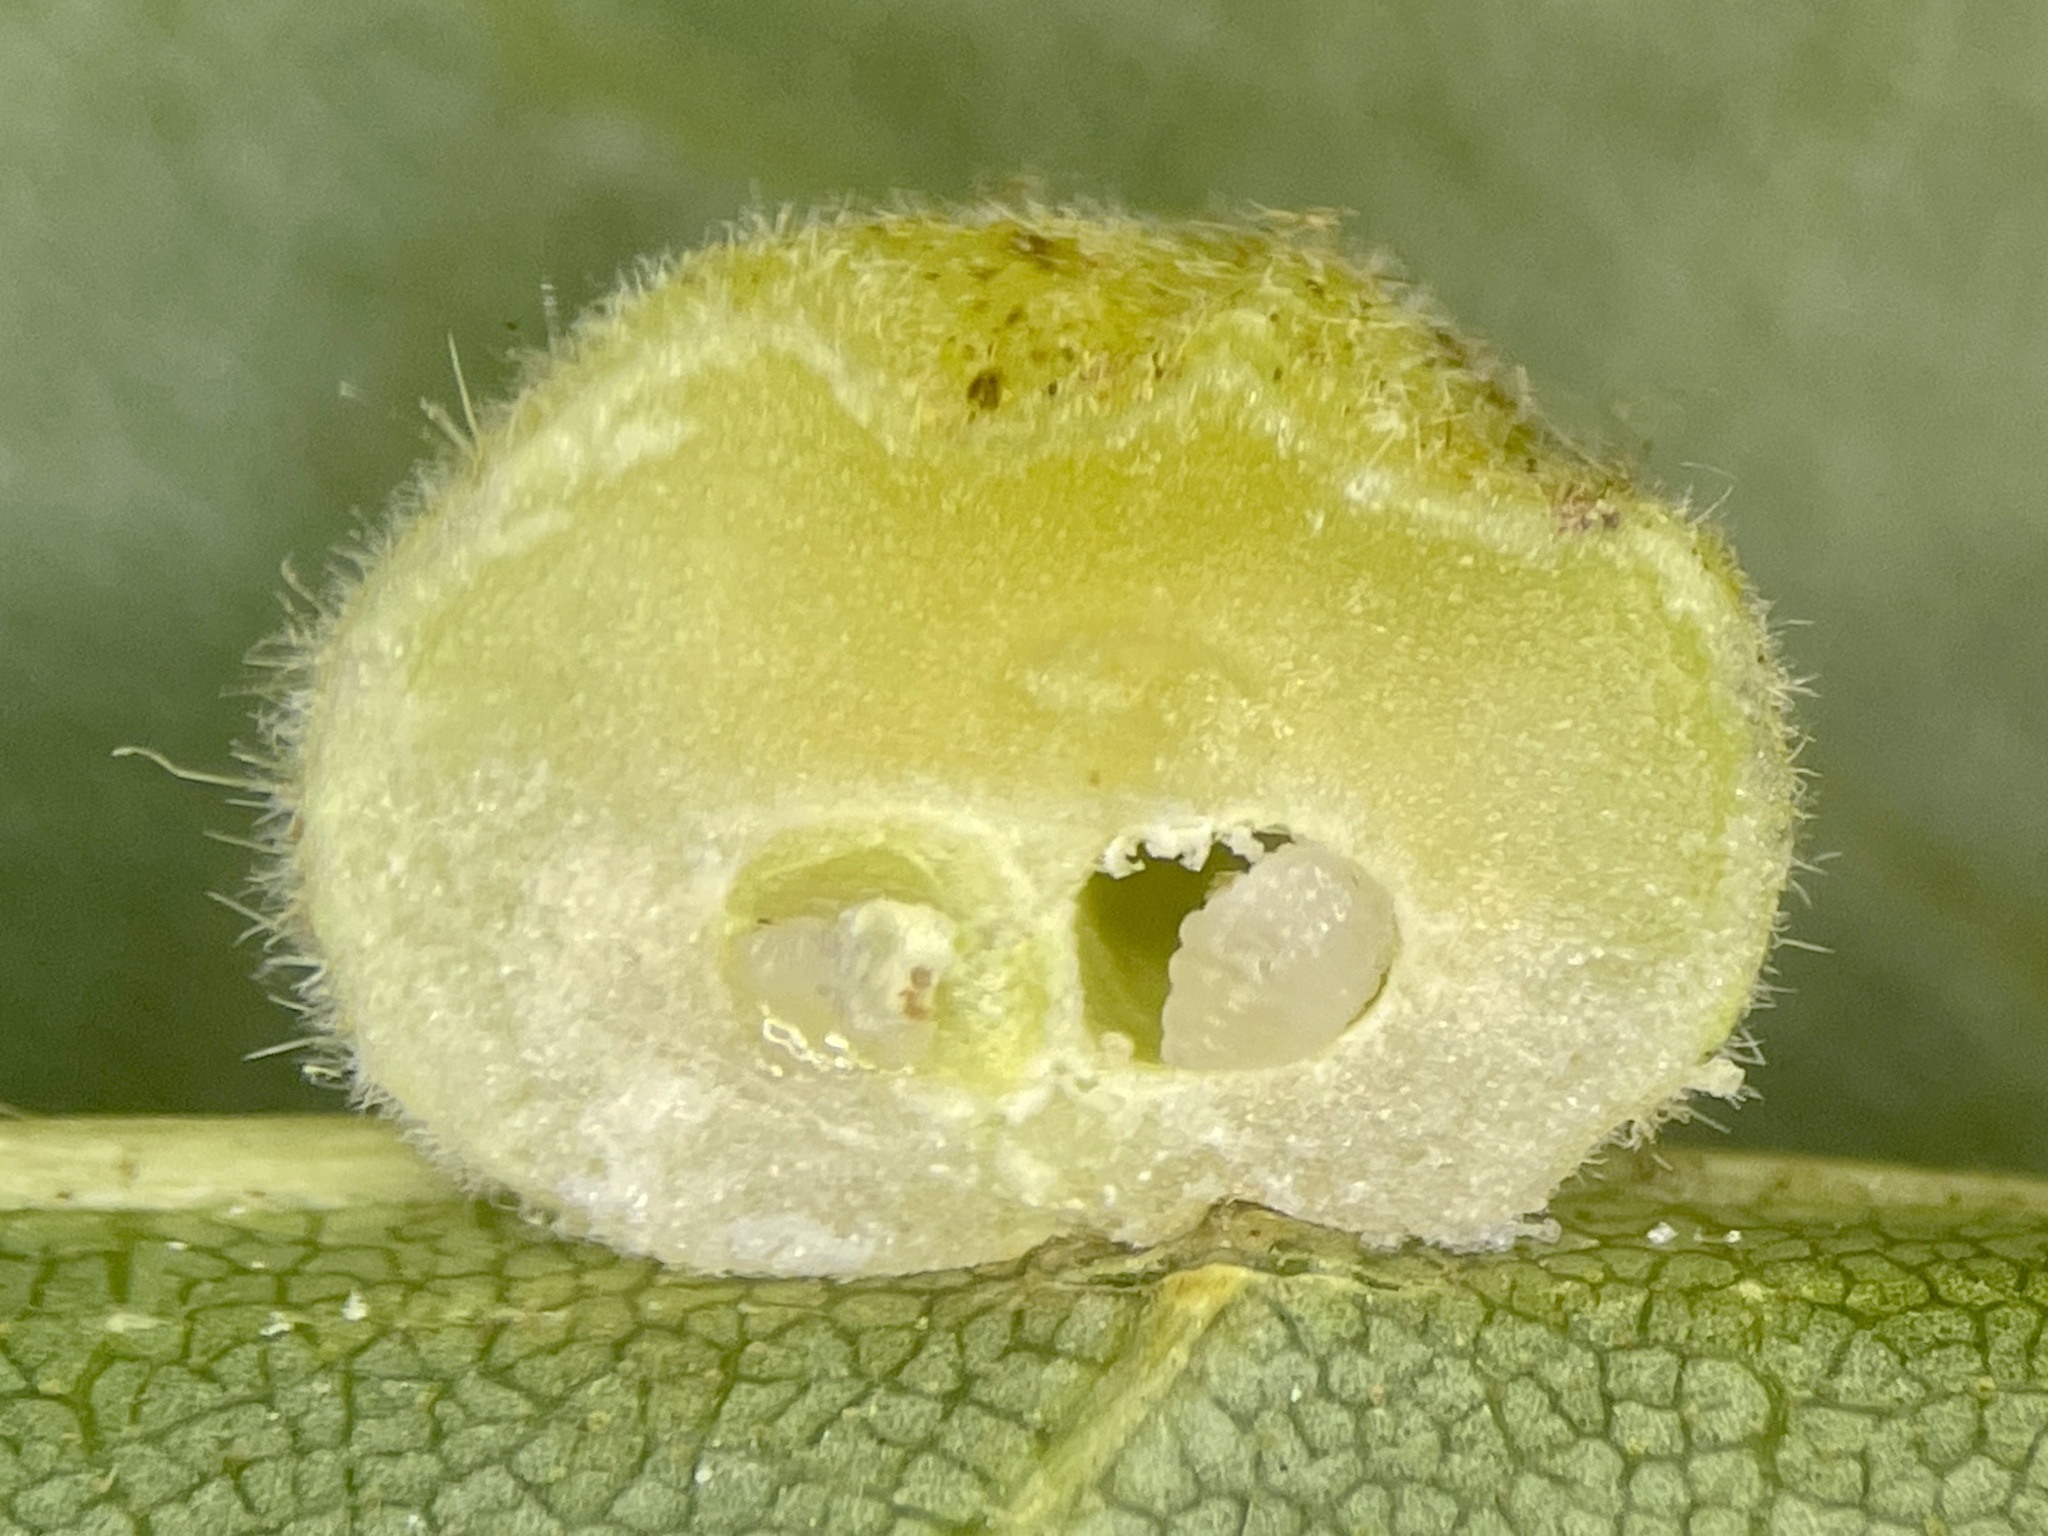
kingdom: Animalia
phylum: Arthropoda
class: Insecta
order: Diptera
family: Cecidomyiidae
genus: Caryomyia
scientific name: Caryomyia persicoides
